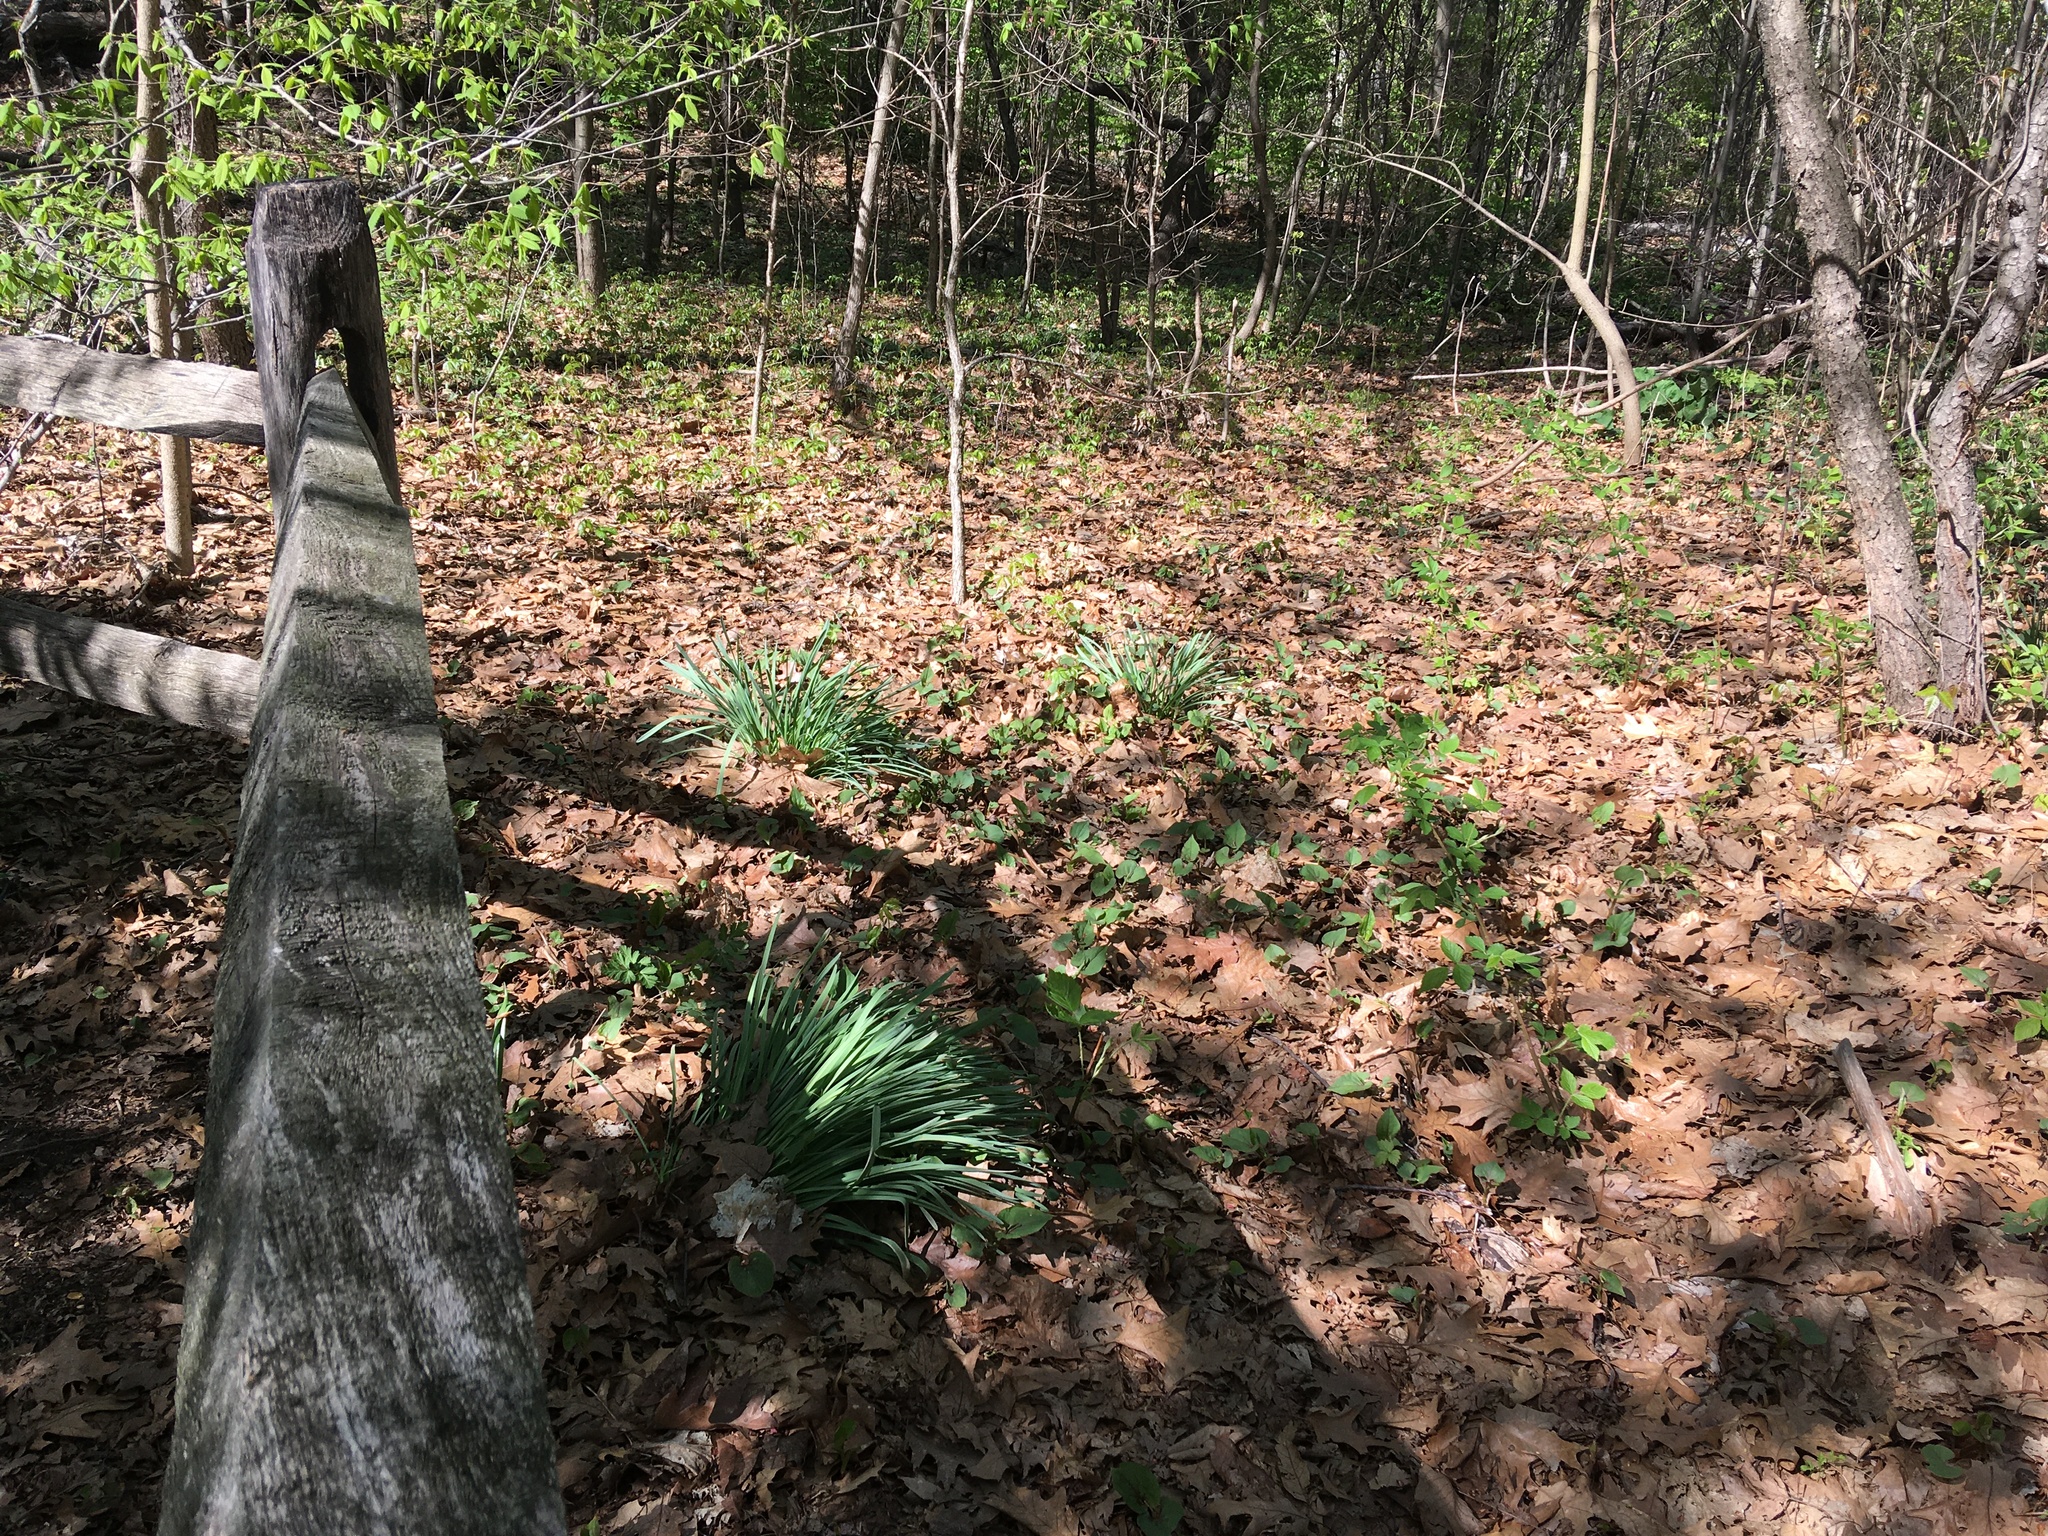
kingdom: Plantae
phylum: Tracheophyta
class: Magnoliopsida
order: Piperales
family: Saururaceae
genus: Houttuynia
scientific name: Houttuynia cordata
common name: Chameleon
